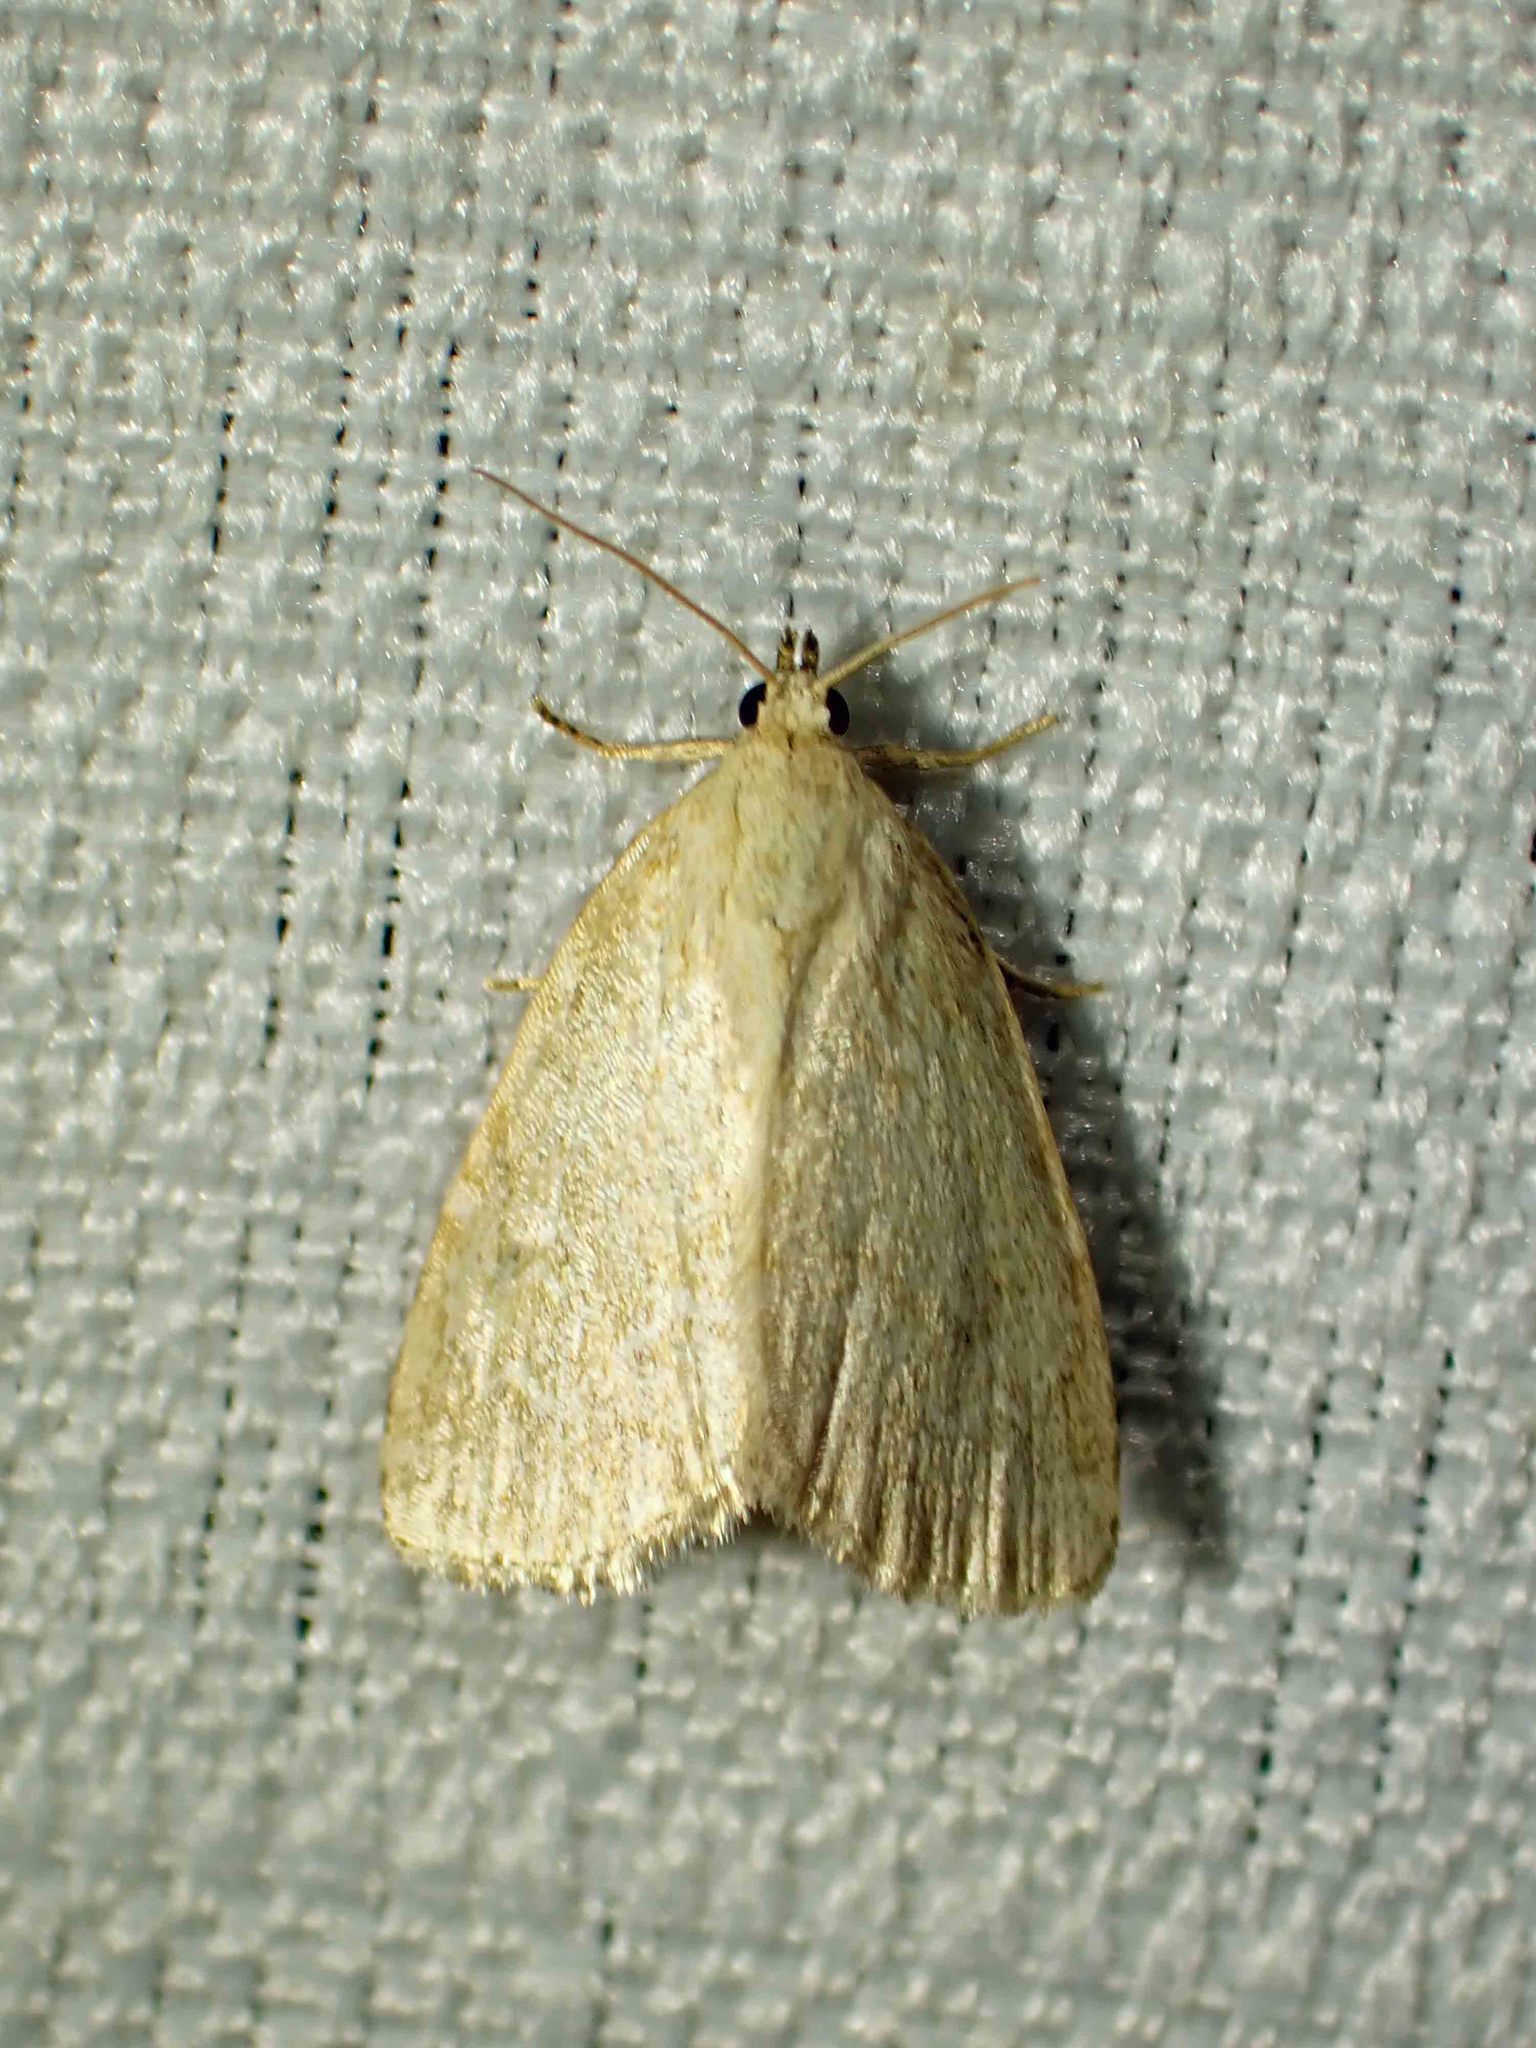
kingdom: Animalia
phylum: Arthropoda
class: Insecta
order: Lepidoptera
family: Noctuidae
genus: Protodeltote
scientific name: Protodeltote albidula
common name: Pale glyph
